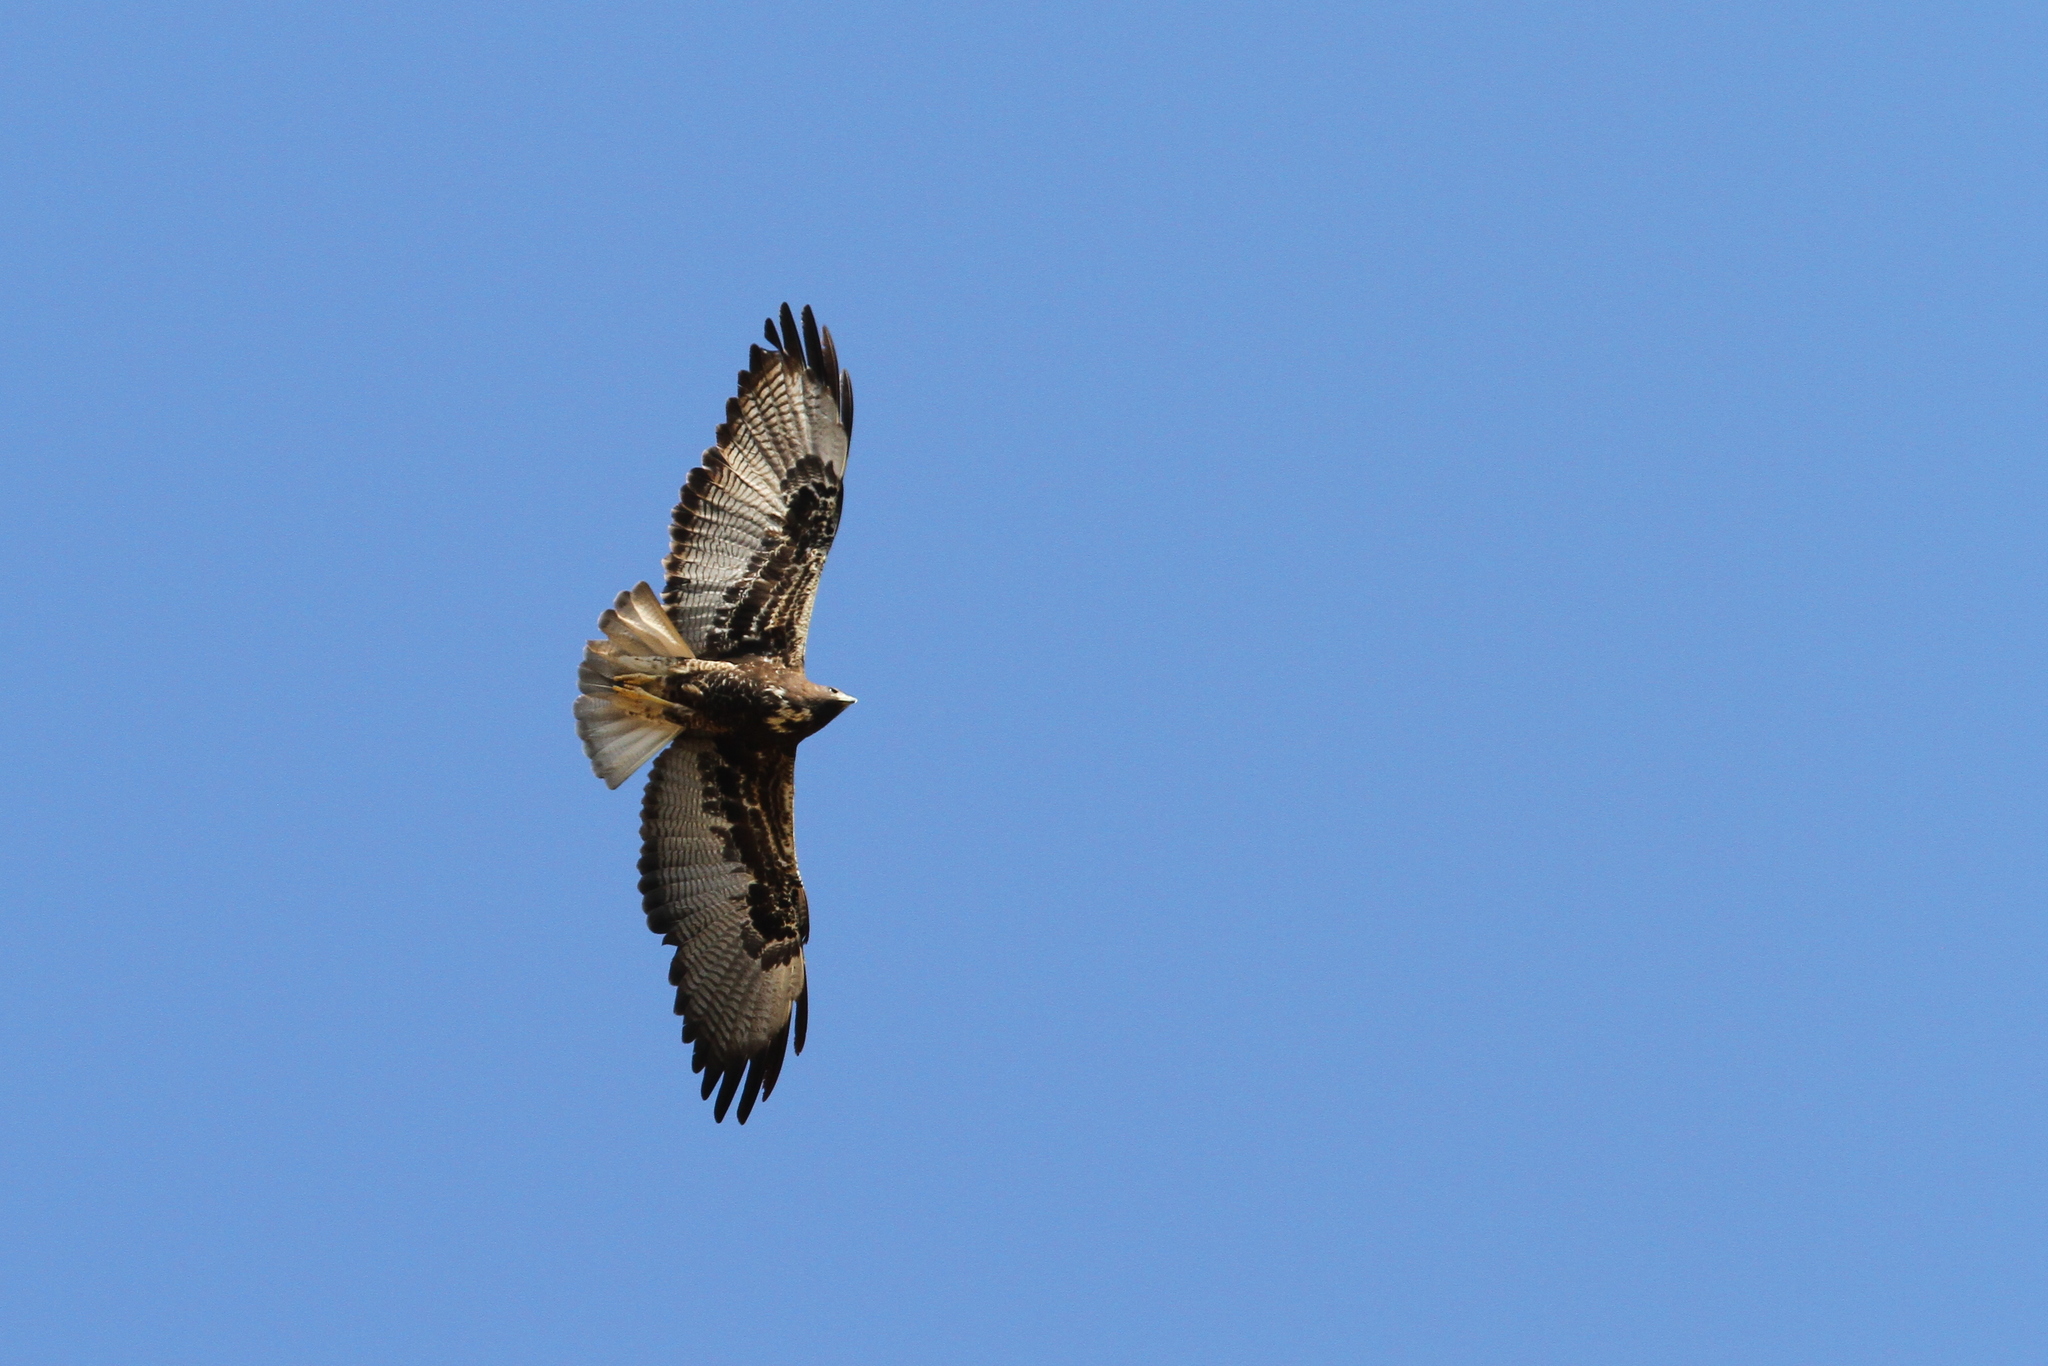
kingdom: Animalia
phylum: Chordata
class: Aves
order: Accipitriformes
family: Accipitridae
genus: Buteo
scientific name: Buteo albicaudatus
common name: White-tailed hawk
